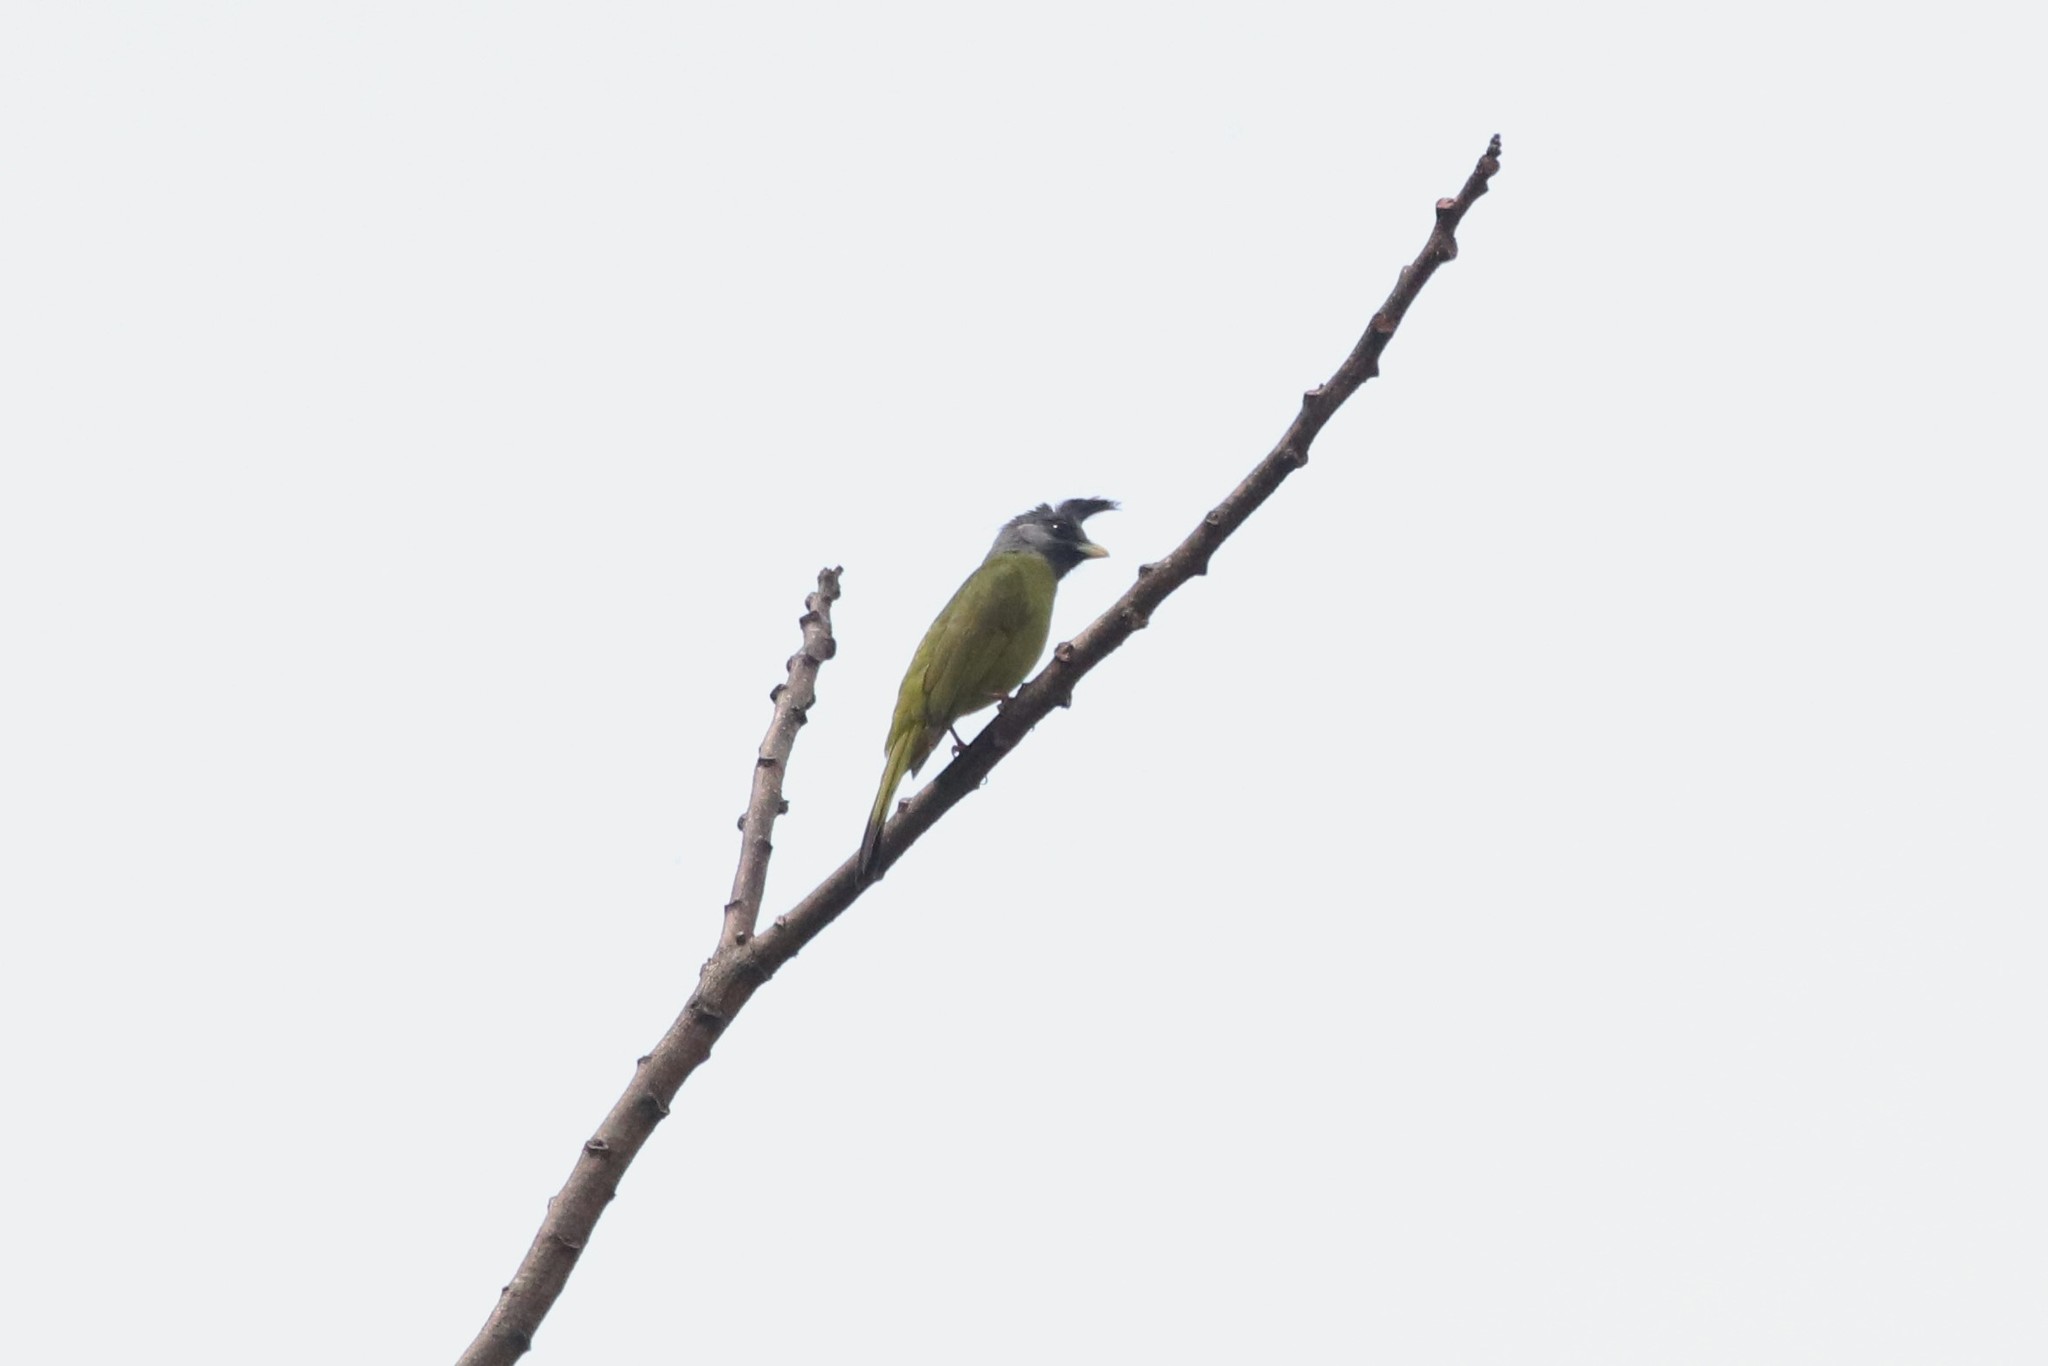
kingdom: Animalia
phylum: Chordata
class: Aves
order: Passeriformes
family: Pycnonotidae
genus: Spizixos
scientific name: Spizixos canifrons
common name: Crested finchbill
